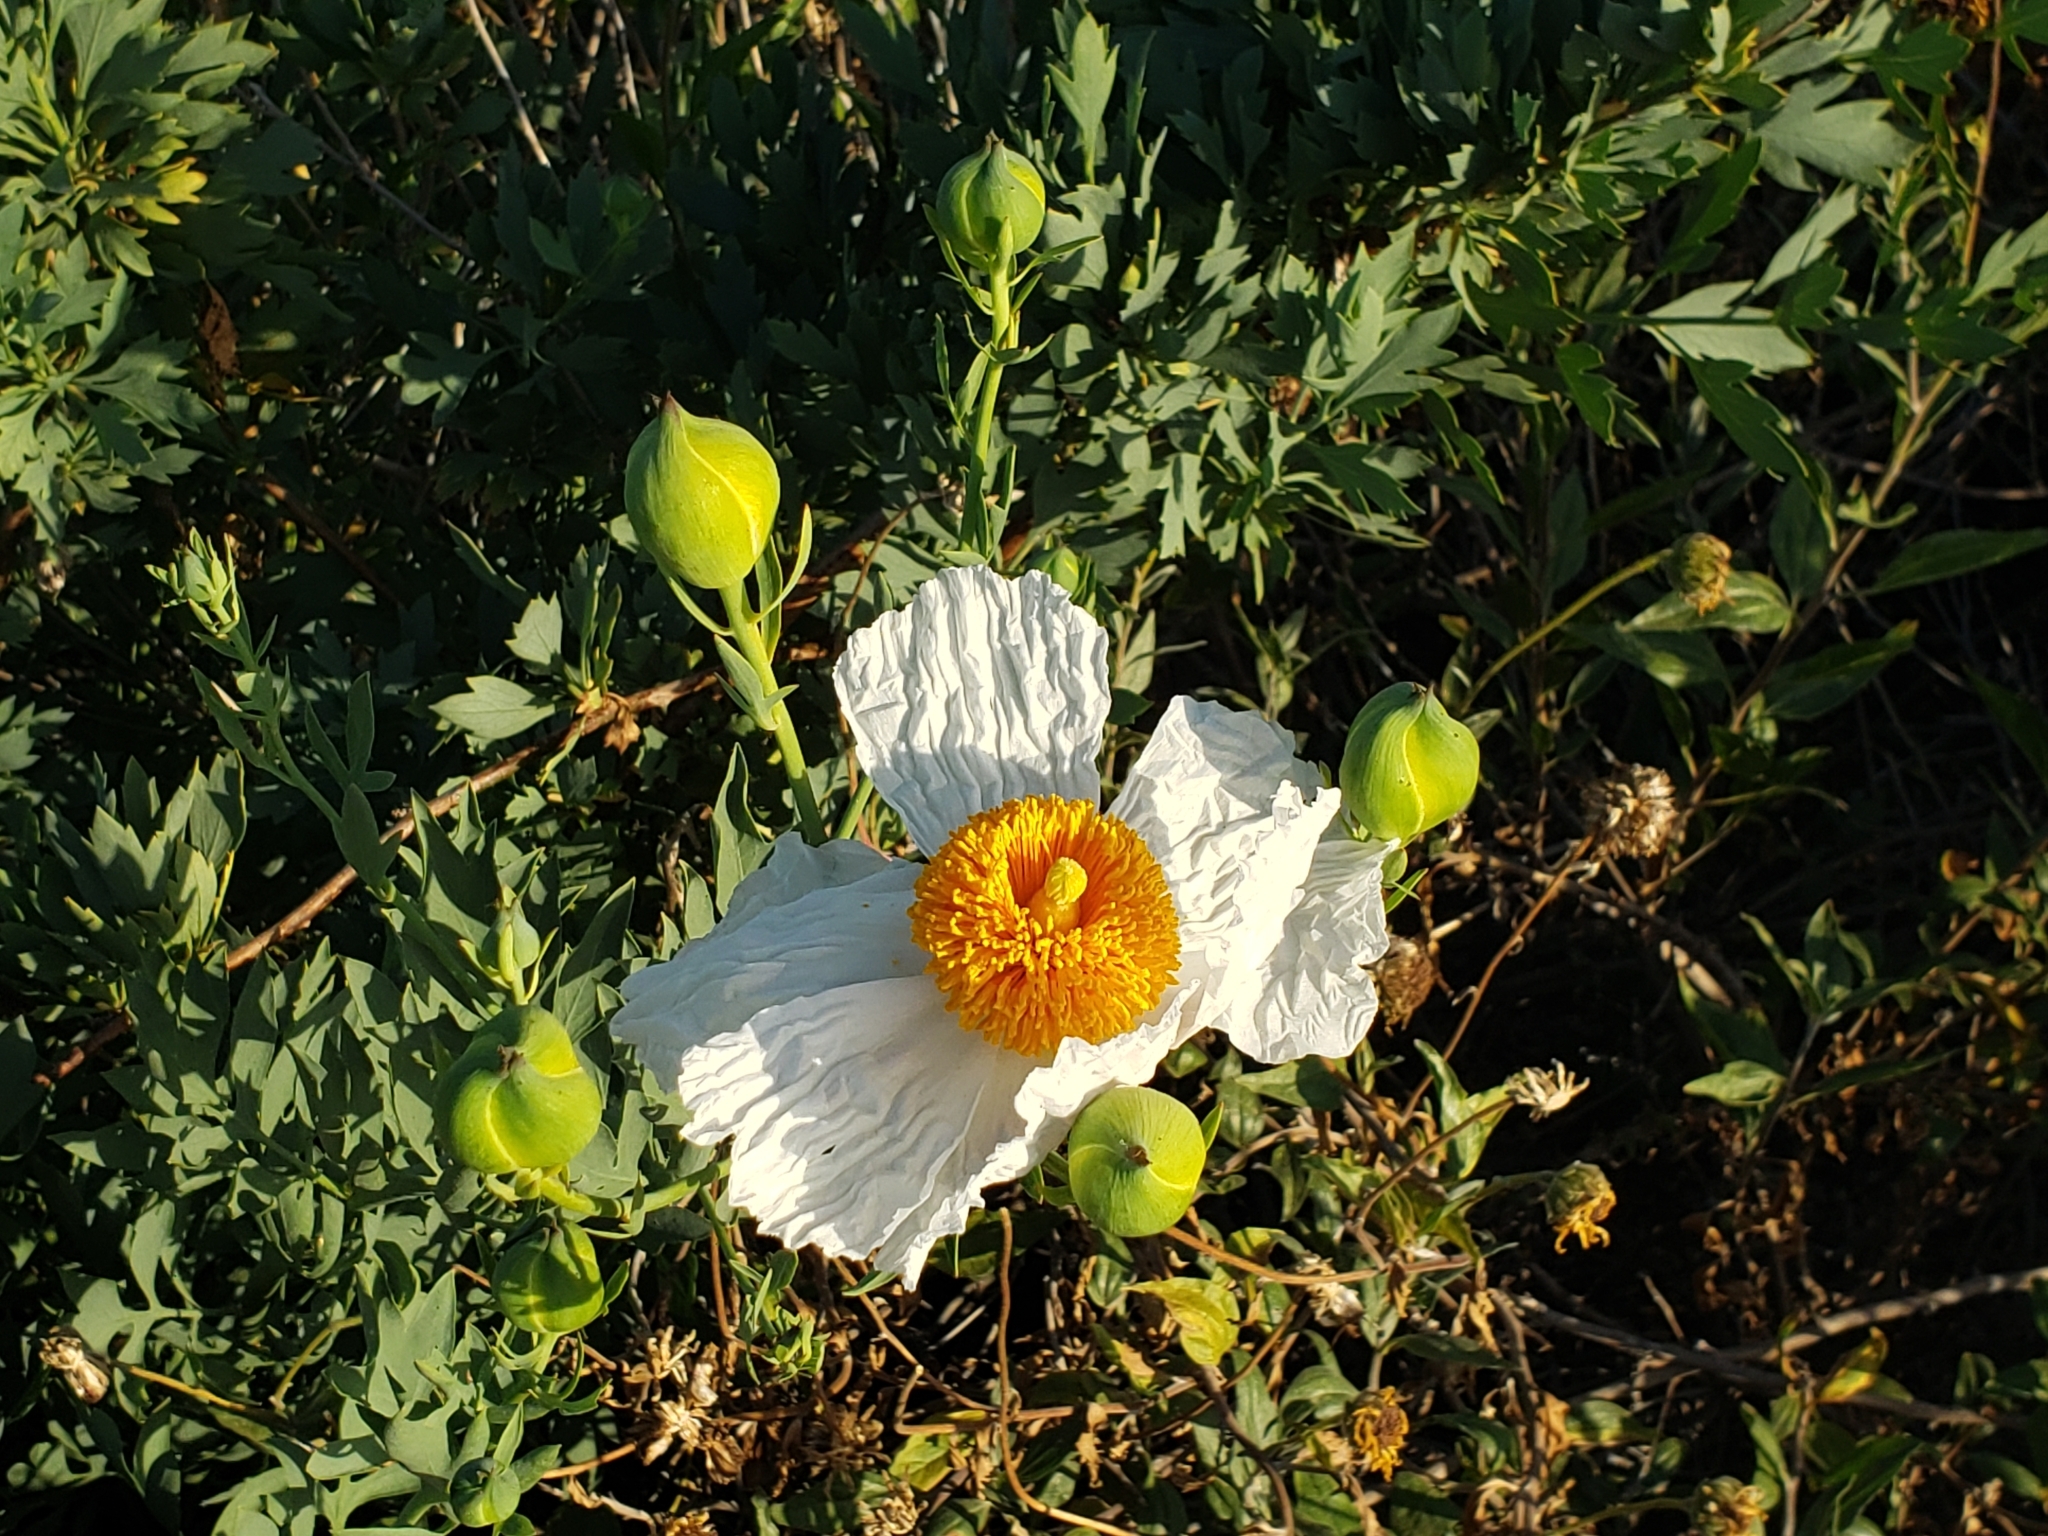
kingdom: Plantae
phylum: Tracheophyta
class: Magnoliopsida
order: Ranunculales
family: Papaveraceae
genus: Romneya
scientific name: Romneya coulteri
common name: California tree-poppy
